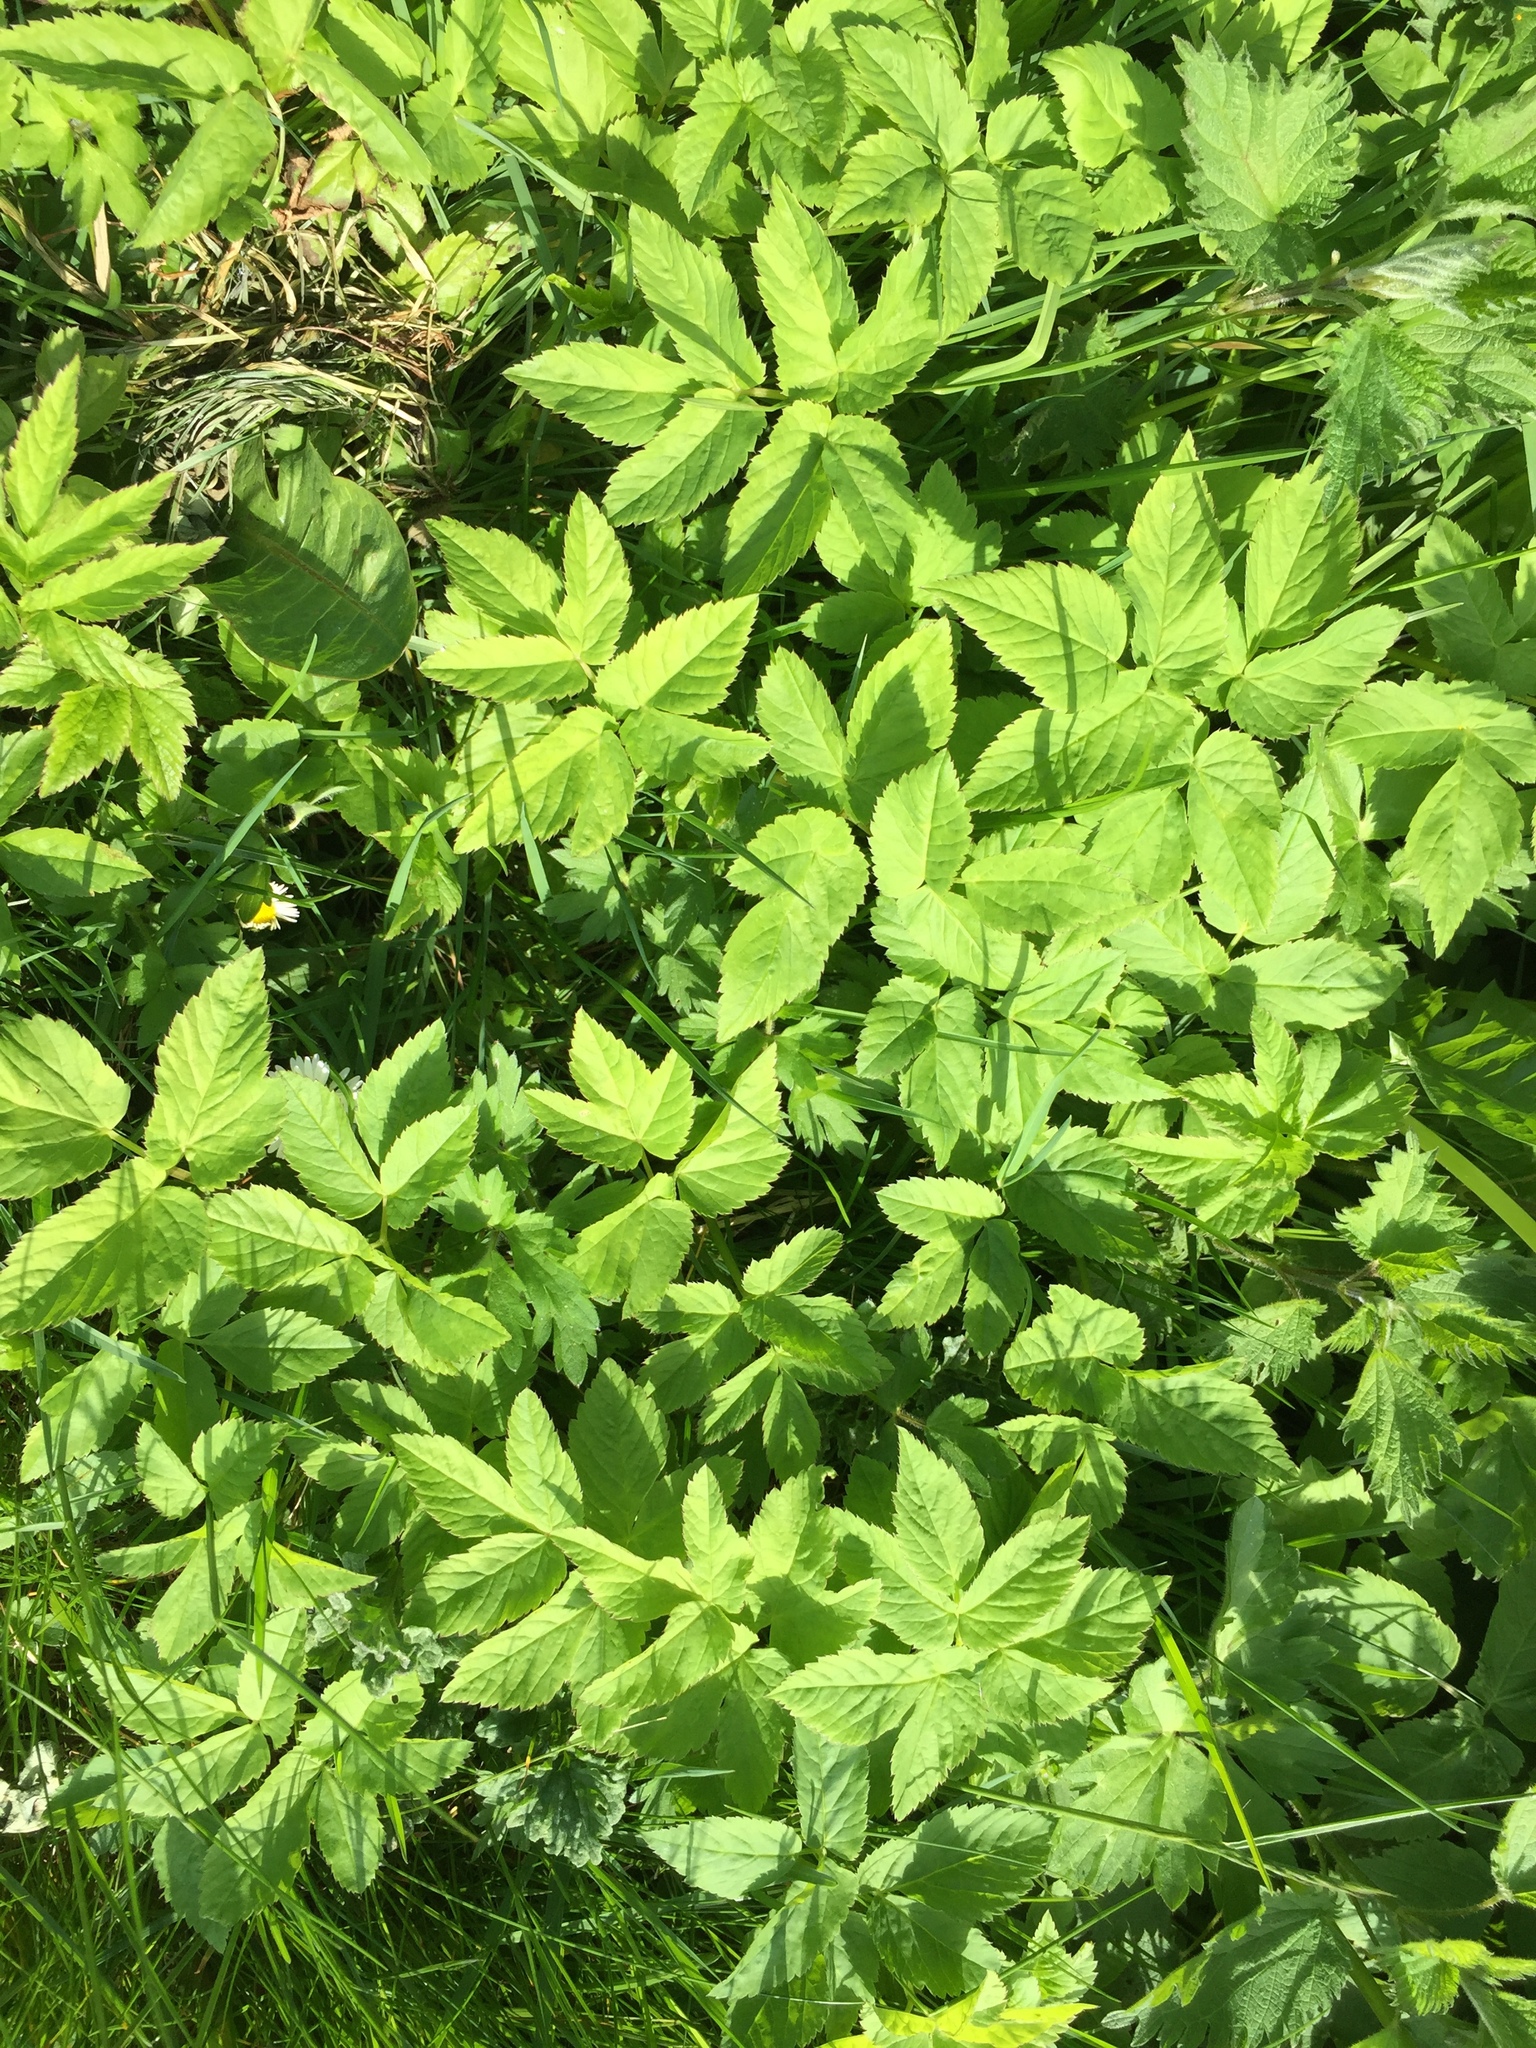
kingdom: Plantae
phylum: Tracheophyta
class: Magnoliopsida
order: Apiales
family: Apiaceae
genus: Aegopodium
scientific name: Aegopodium podagraria
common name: Ground-elder
